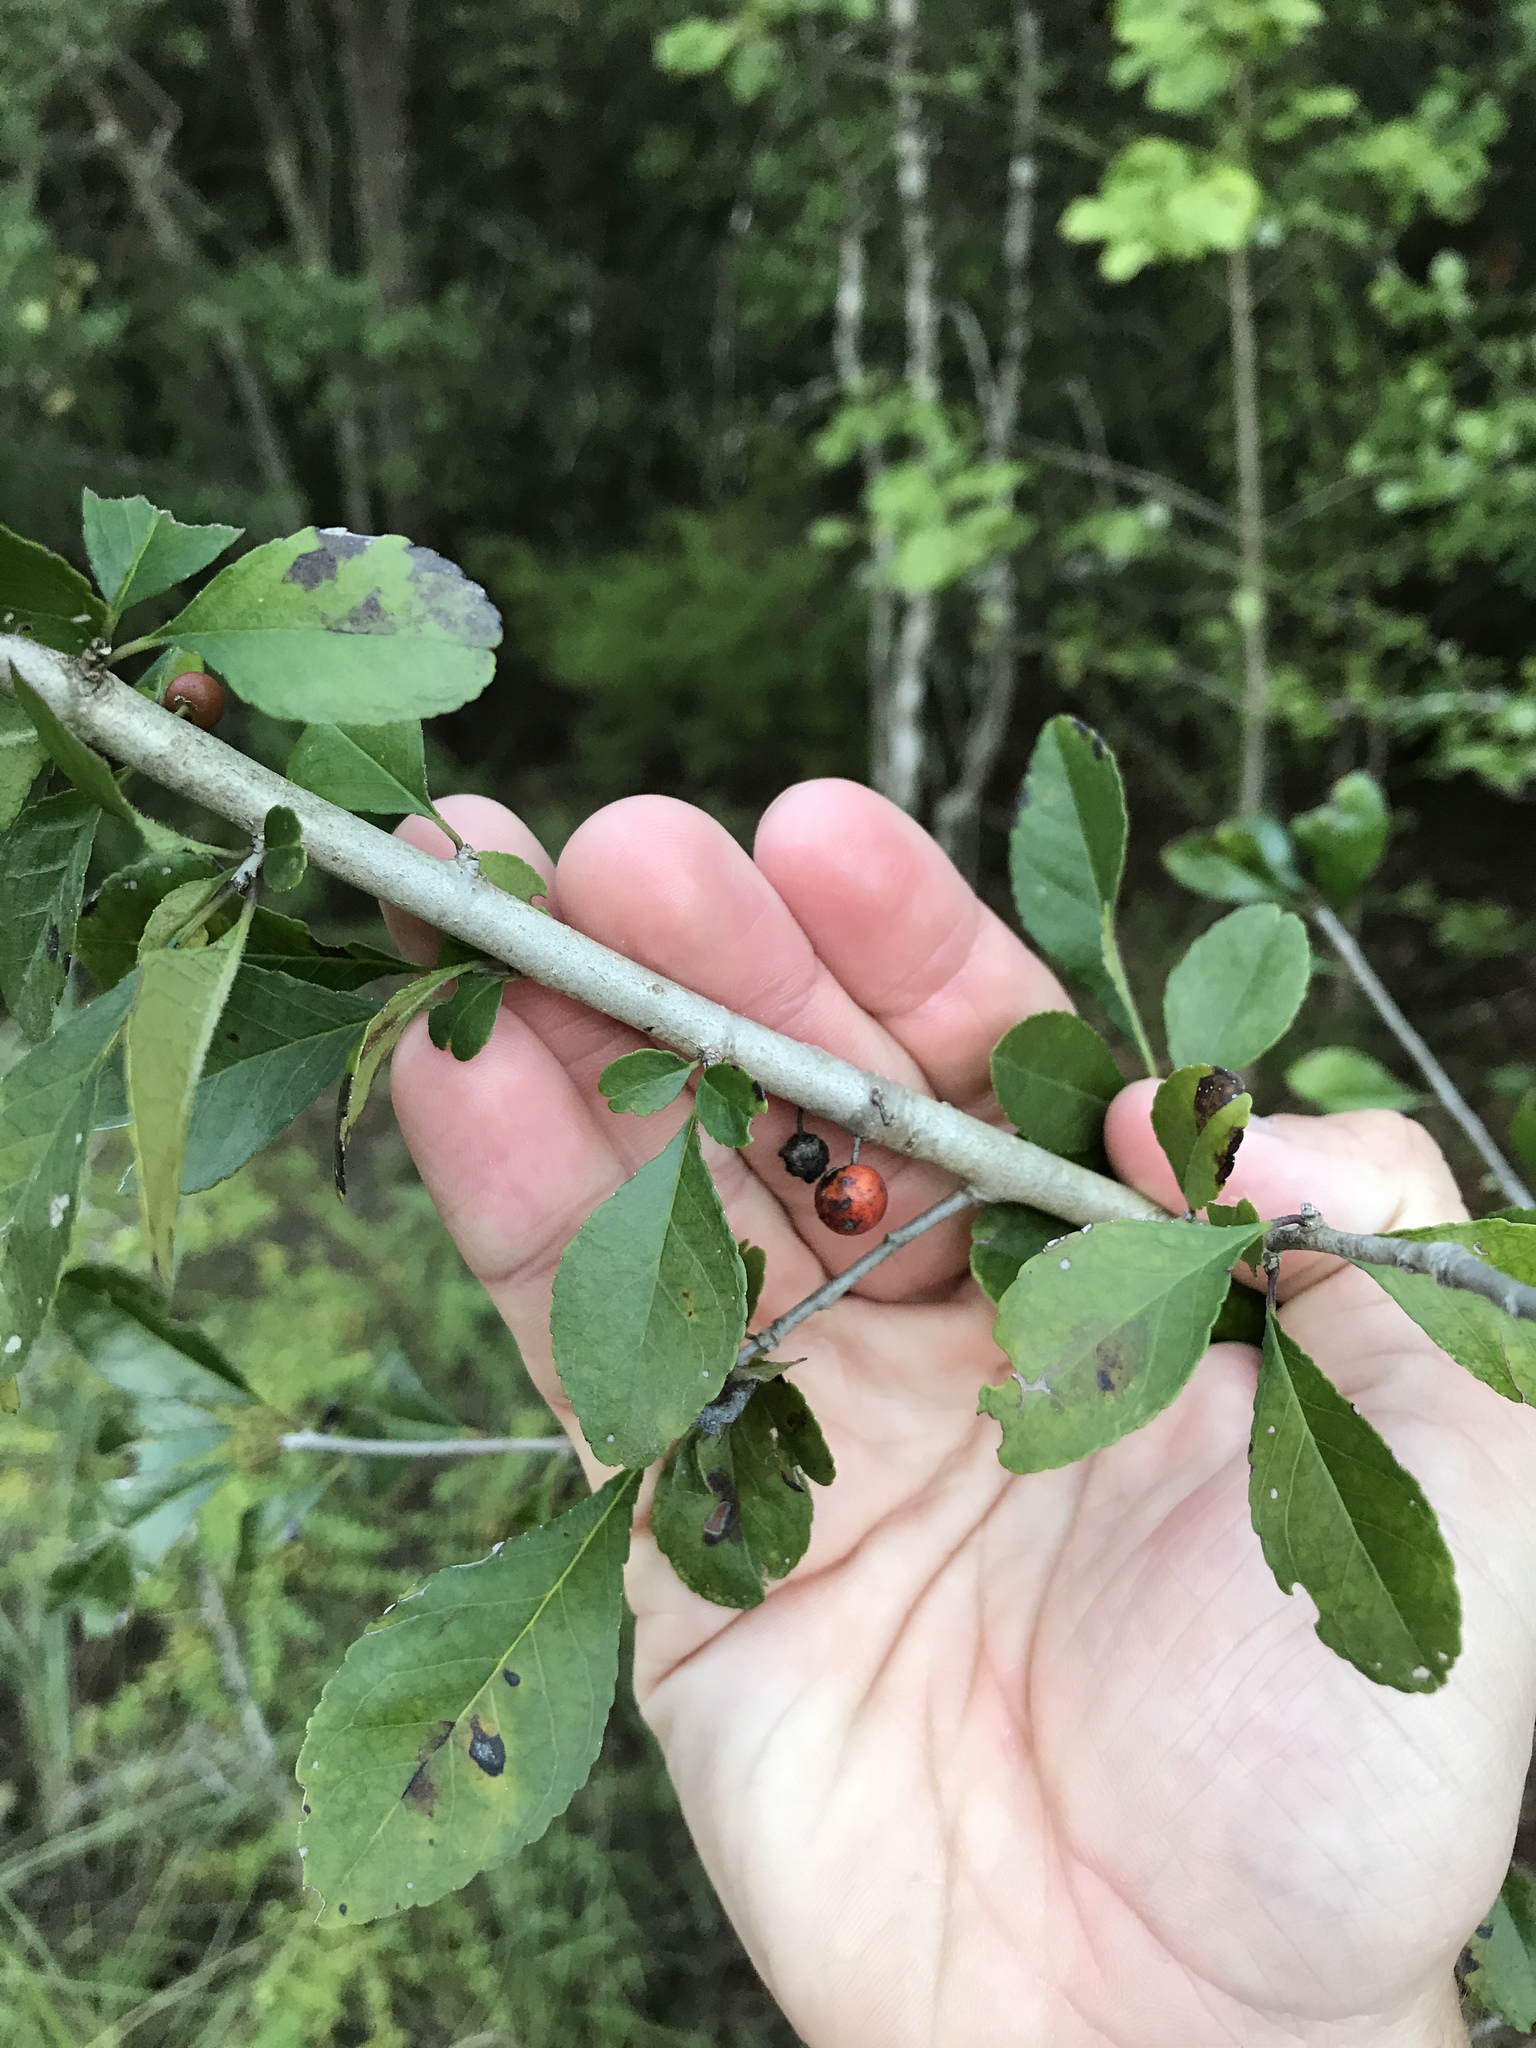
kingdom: Plantae
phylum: Tracheophyta
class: Magnoliopsida
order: Aquifoliales
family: Aquifoliaceae
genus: Ilex
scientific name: Ilex decidua
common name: Possum-haw
